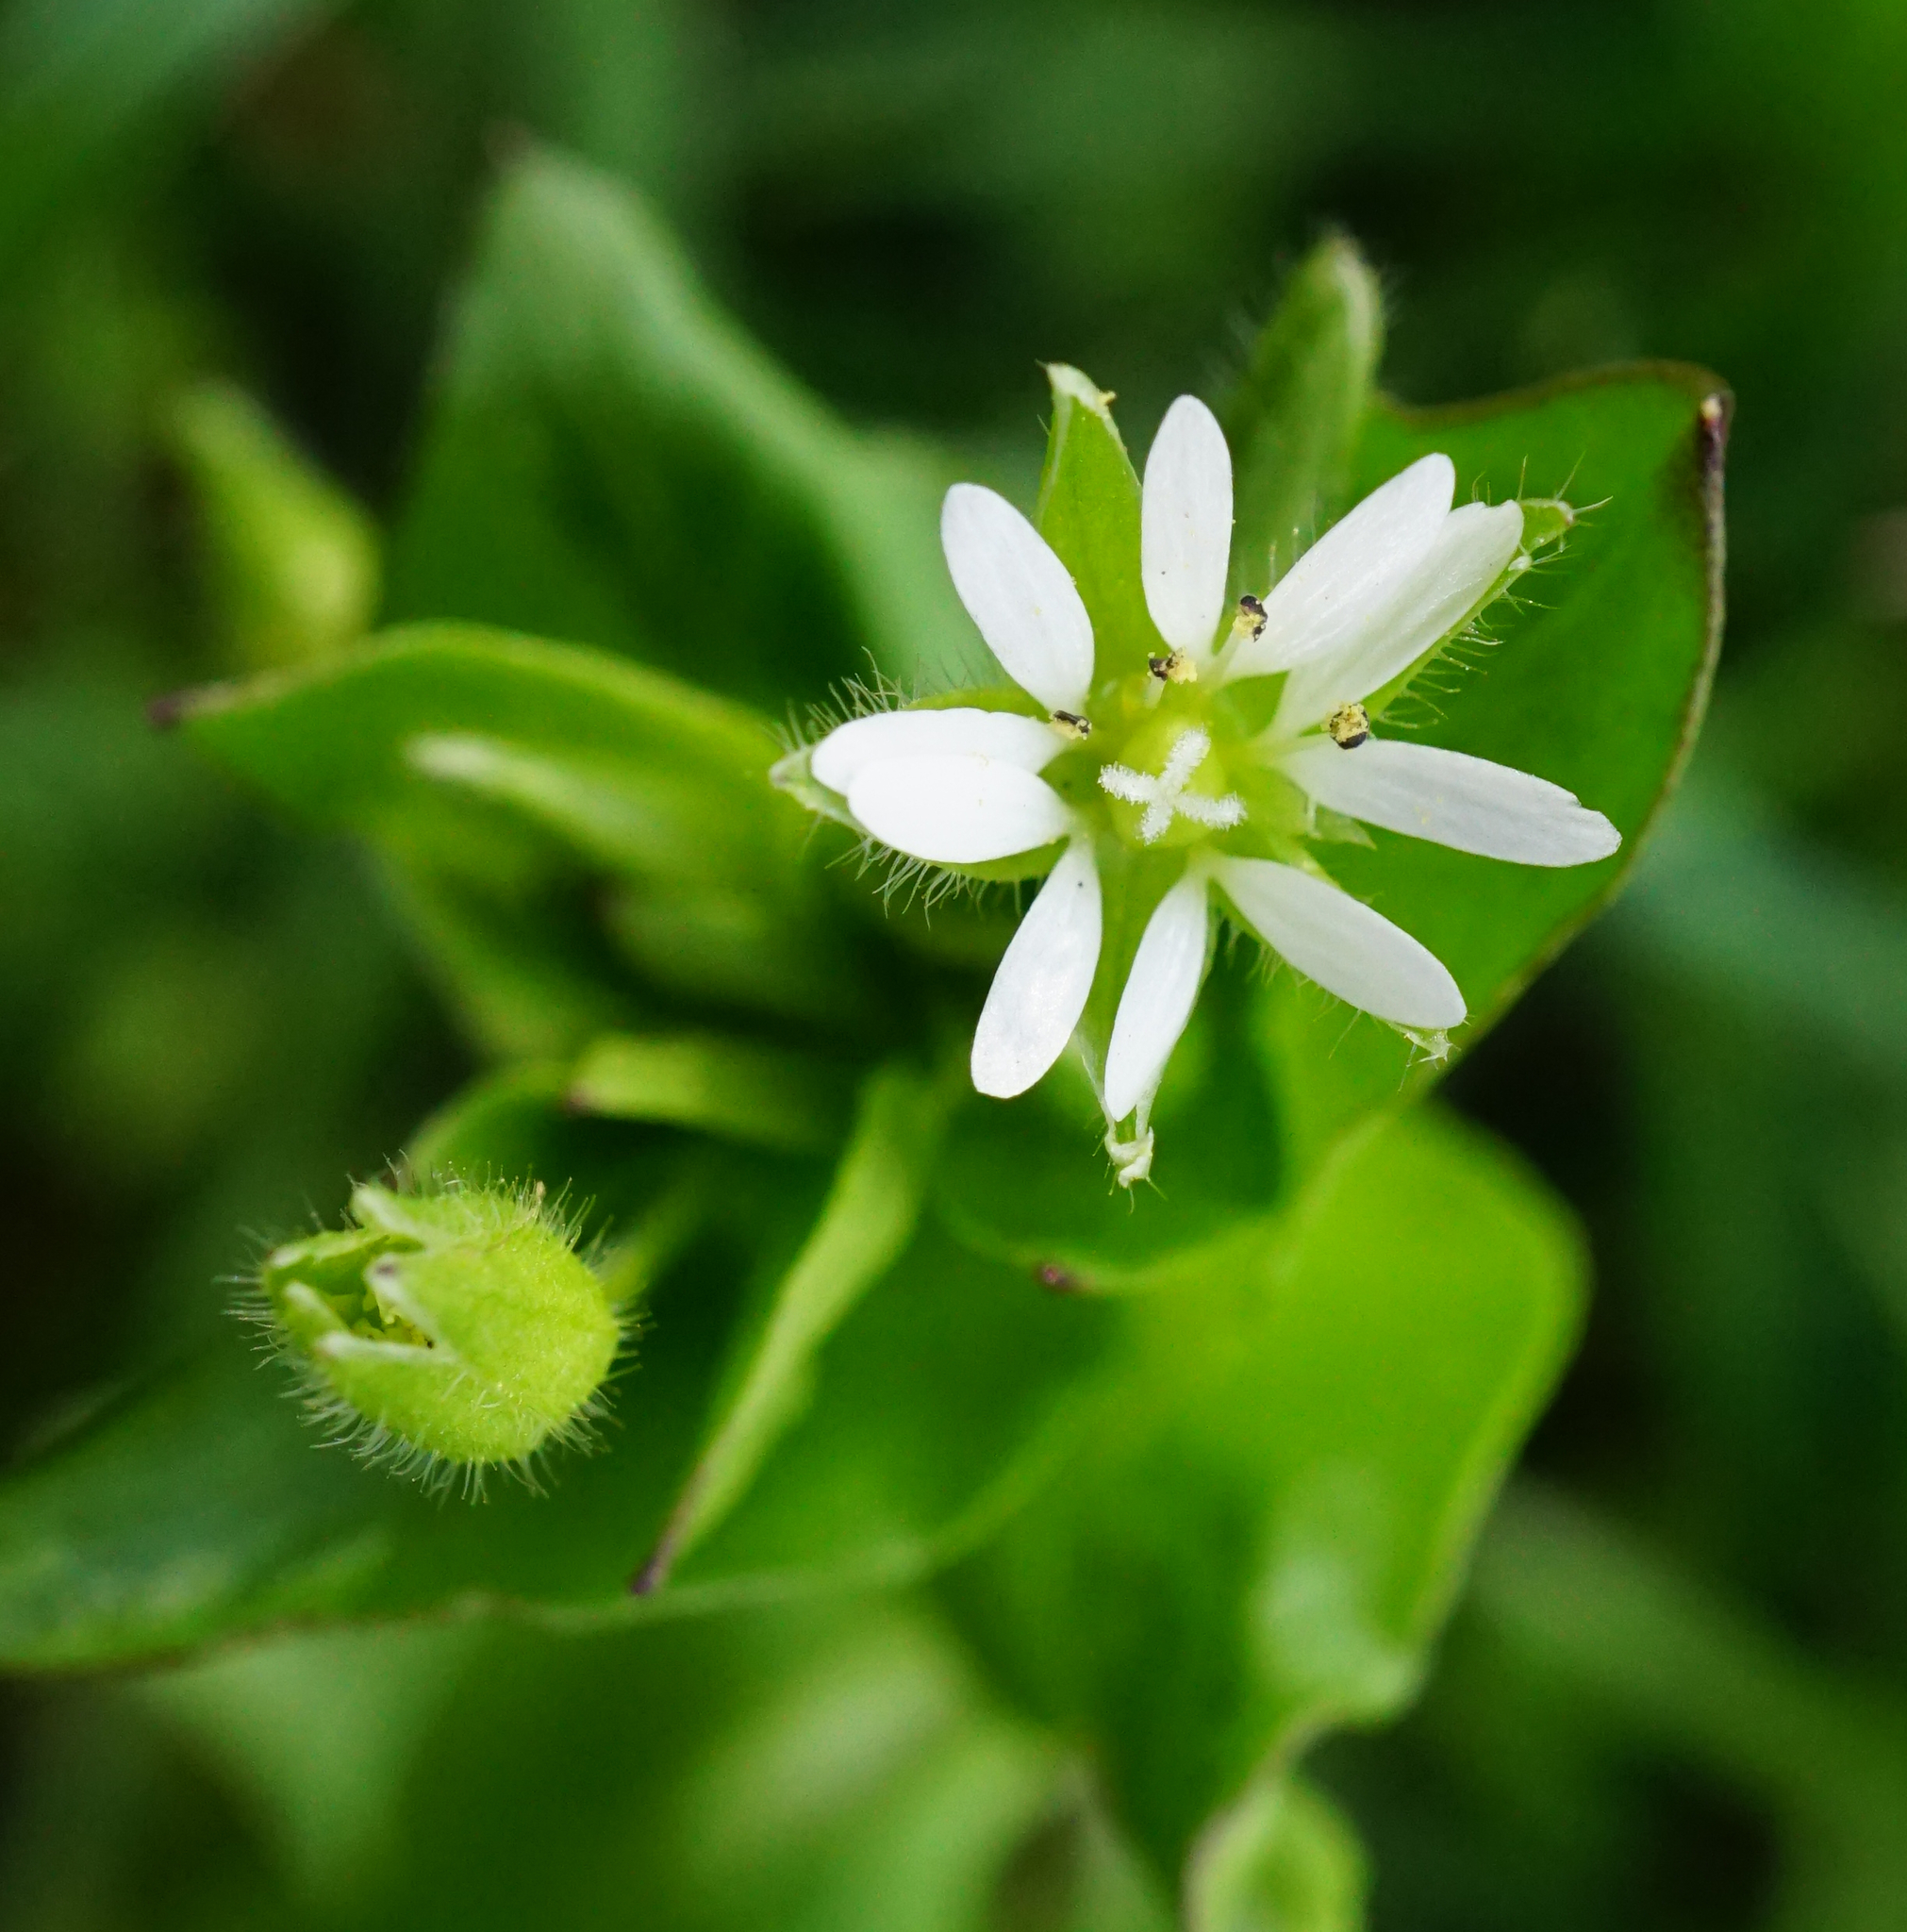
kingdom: Plantae
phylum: Tracheophyta
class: Magnoliopsida
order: Caryophyllales
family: Caryophyllaceae
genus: Stellaria
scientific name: Stellaria
